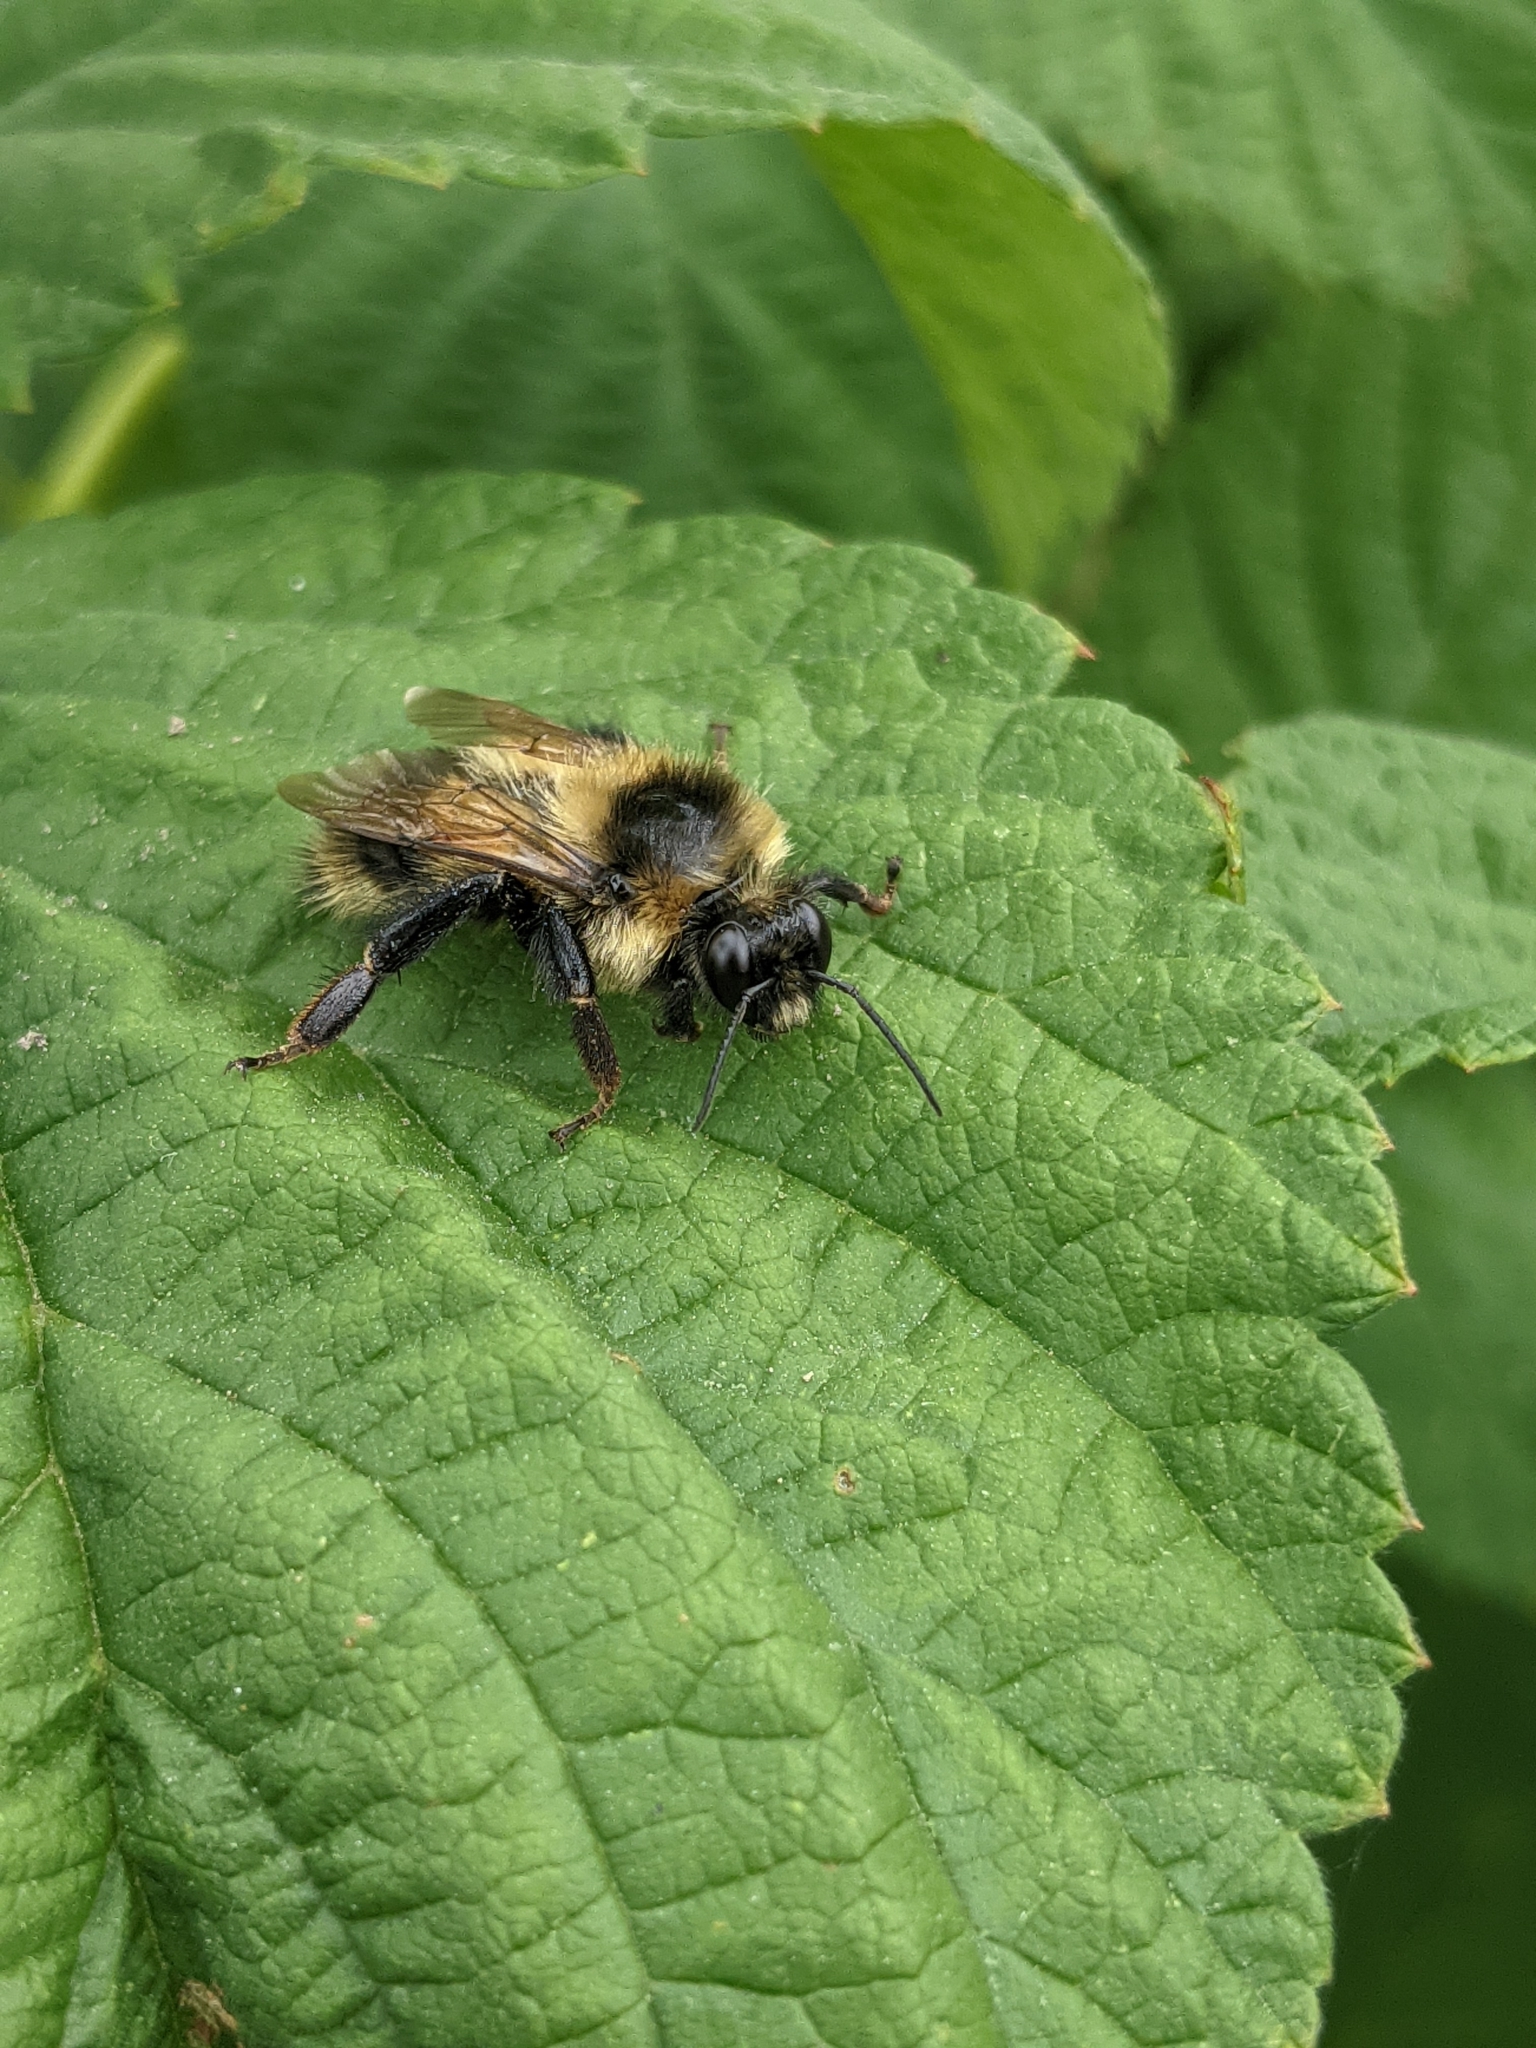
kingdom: Animalia
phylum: Arthropoda
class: Insecta
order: Hymenoptera
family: Apidae
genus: Bombus
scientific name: Bombus rufocinctus
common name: Red-belted bumble bee
